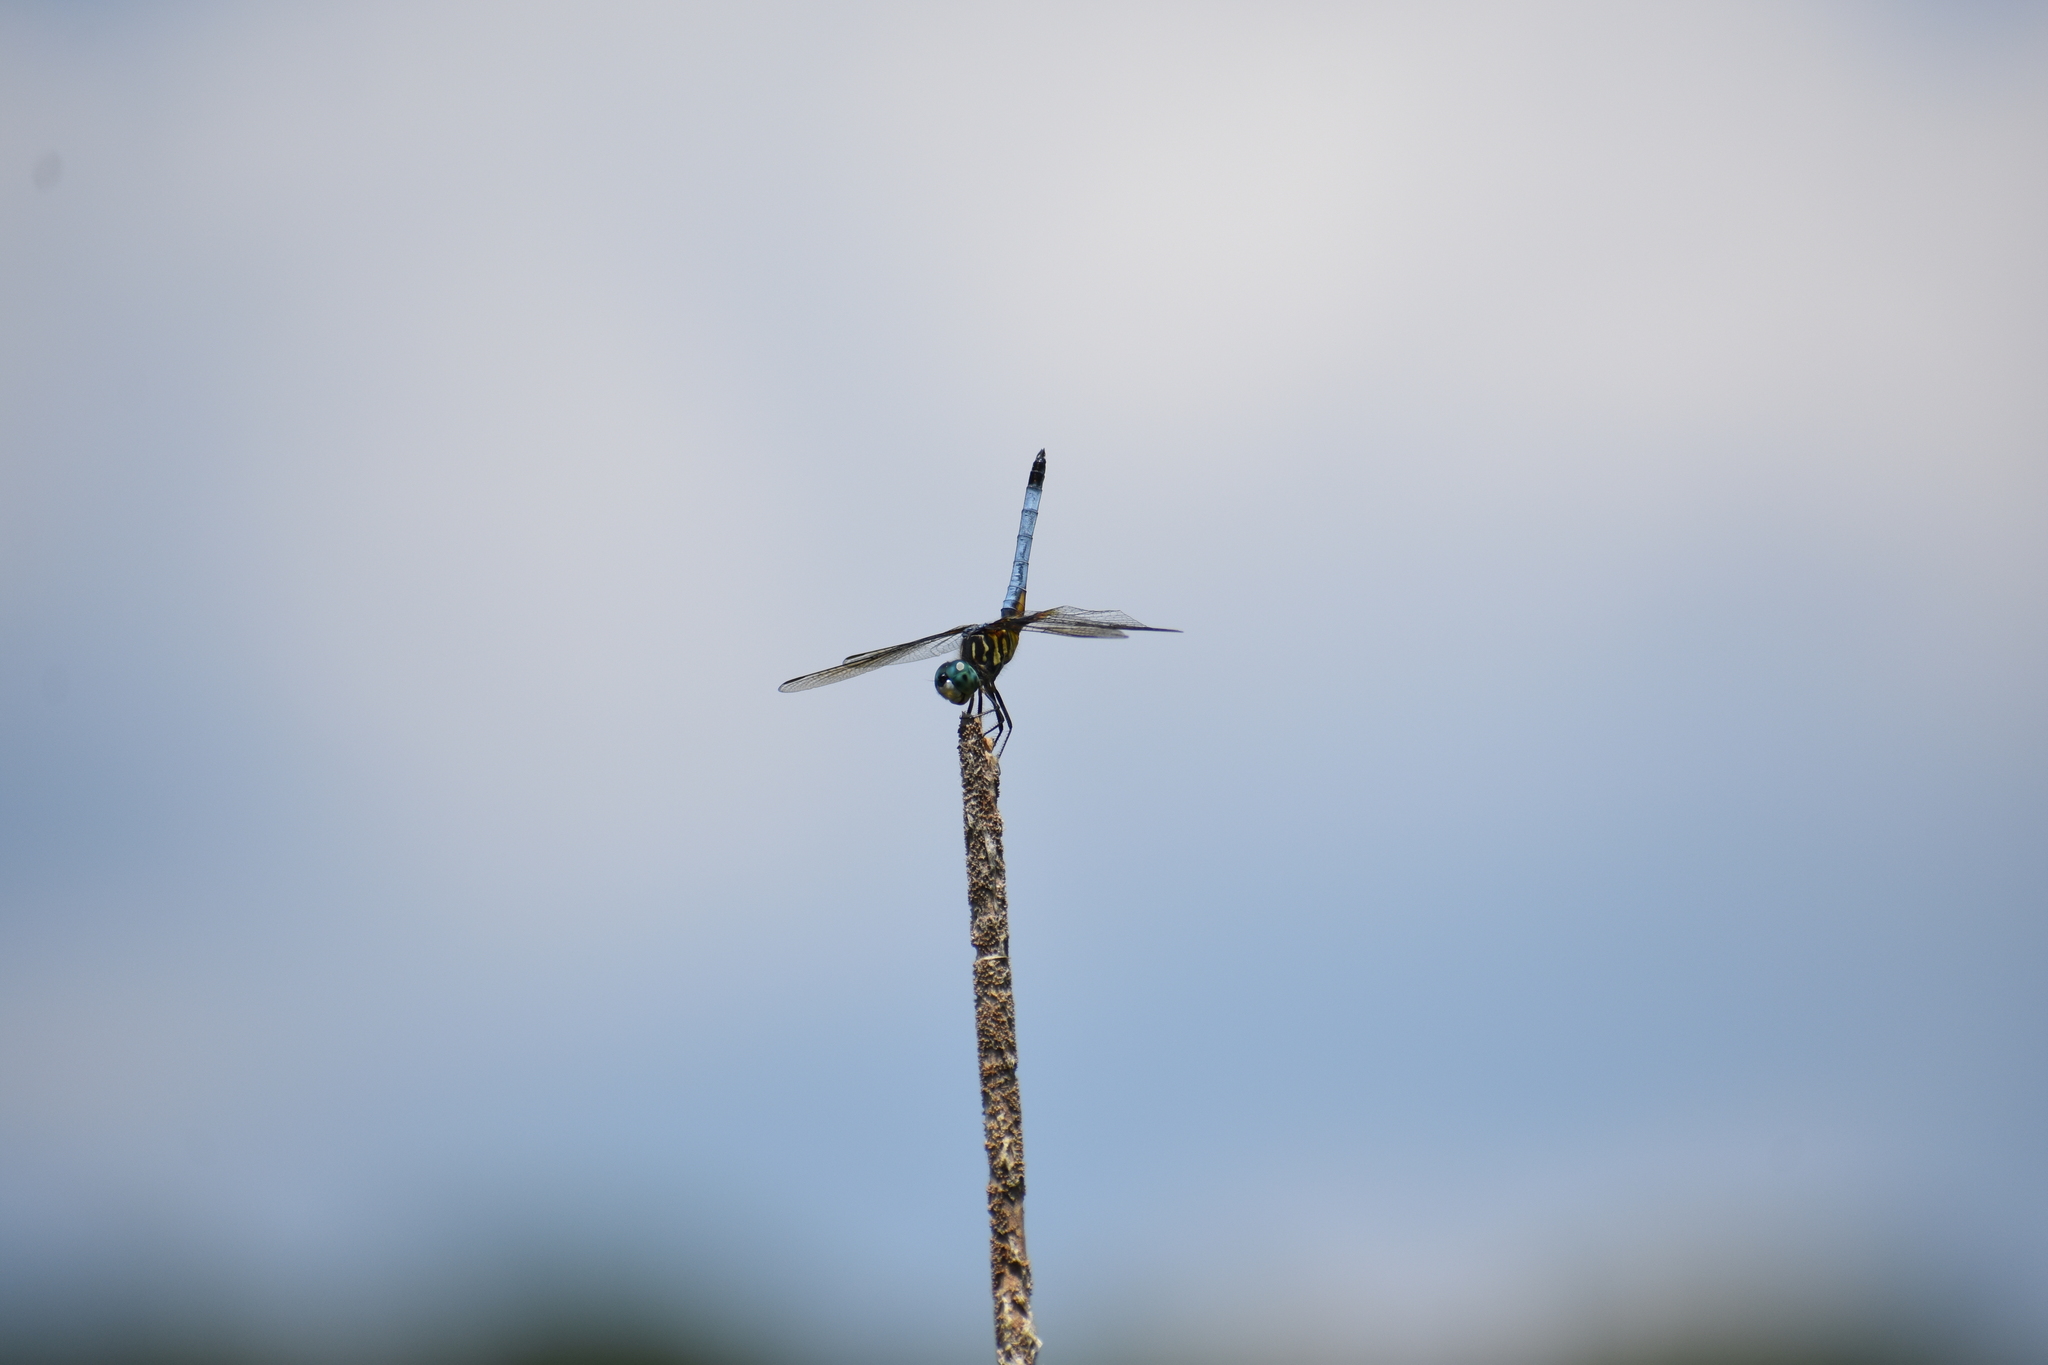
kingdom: Animalia
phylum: Arthropoda
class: Insecta
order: Odonata
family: Libellulidae
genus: Pachydiplax
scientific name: Pachydiplax longipennis
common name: Blue dasher
